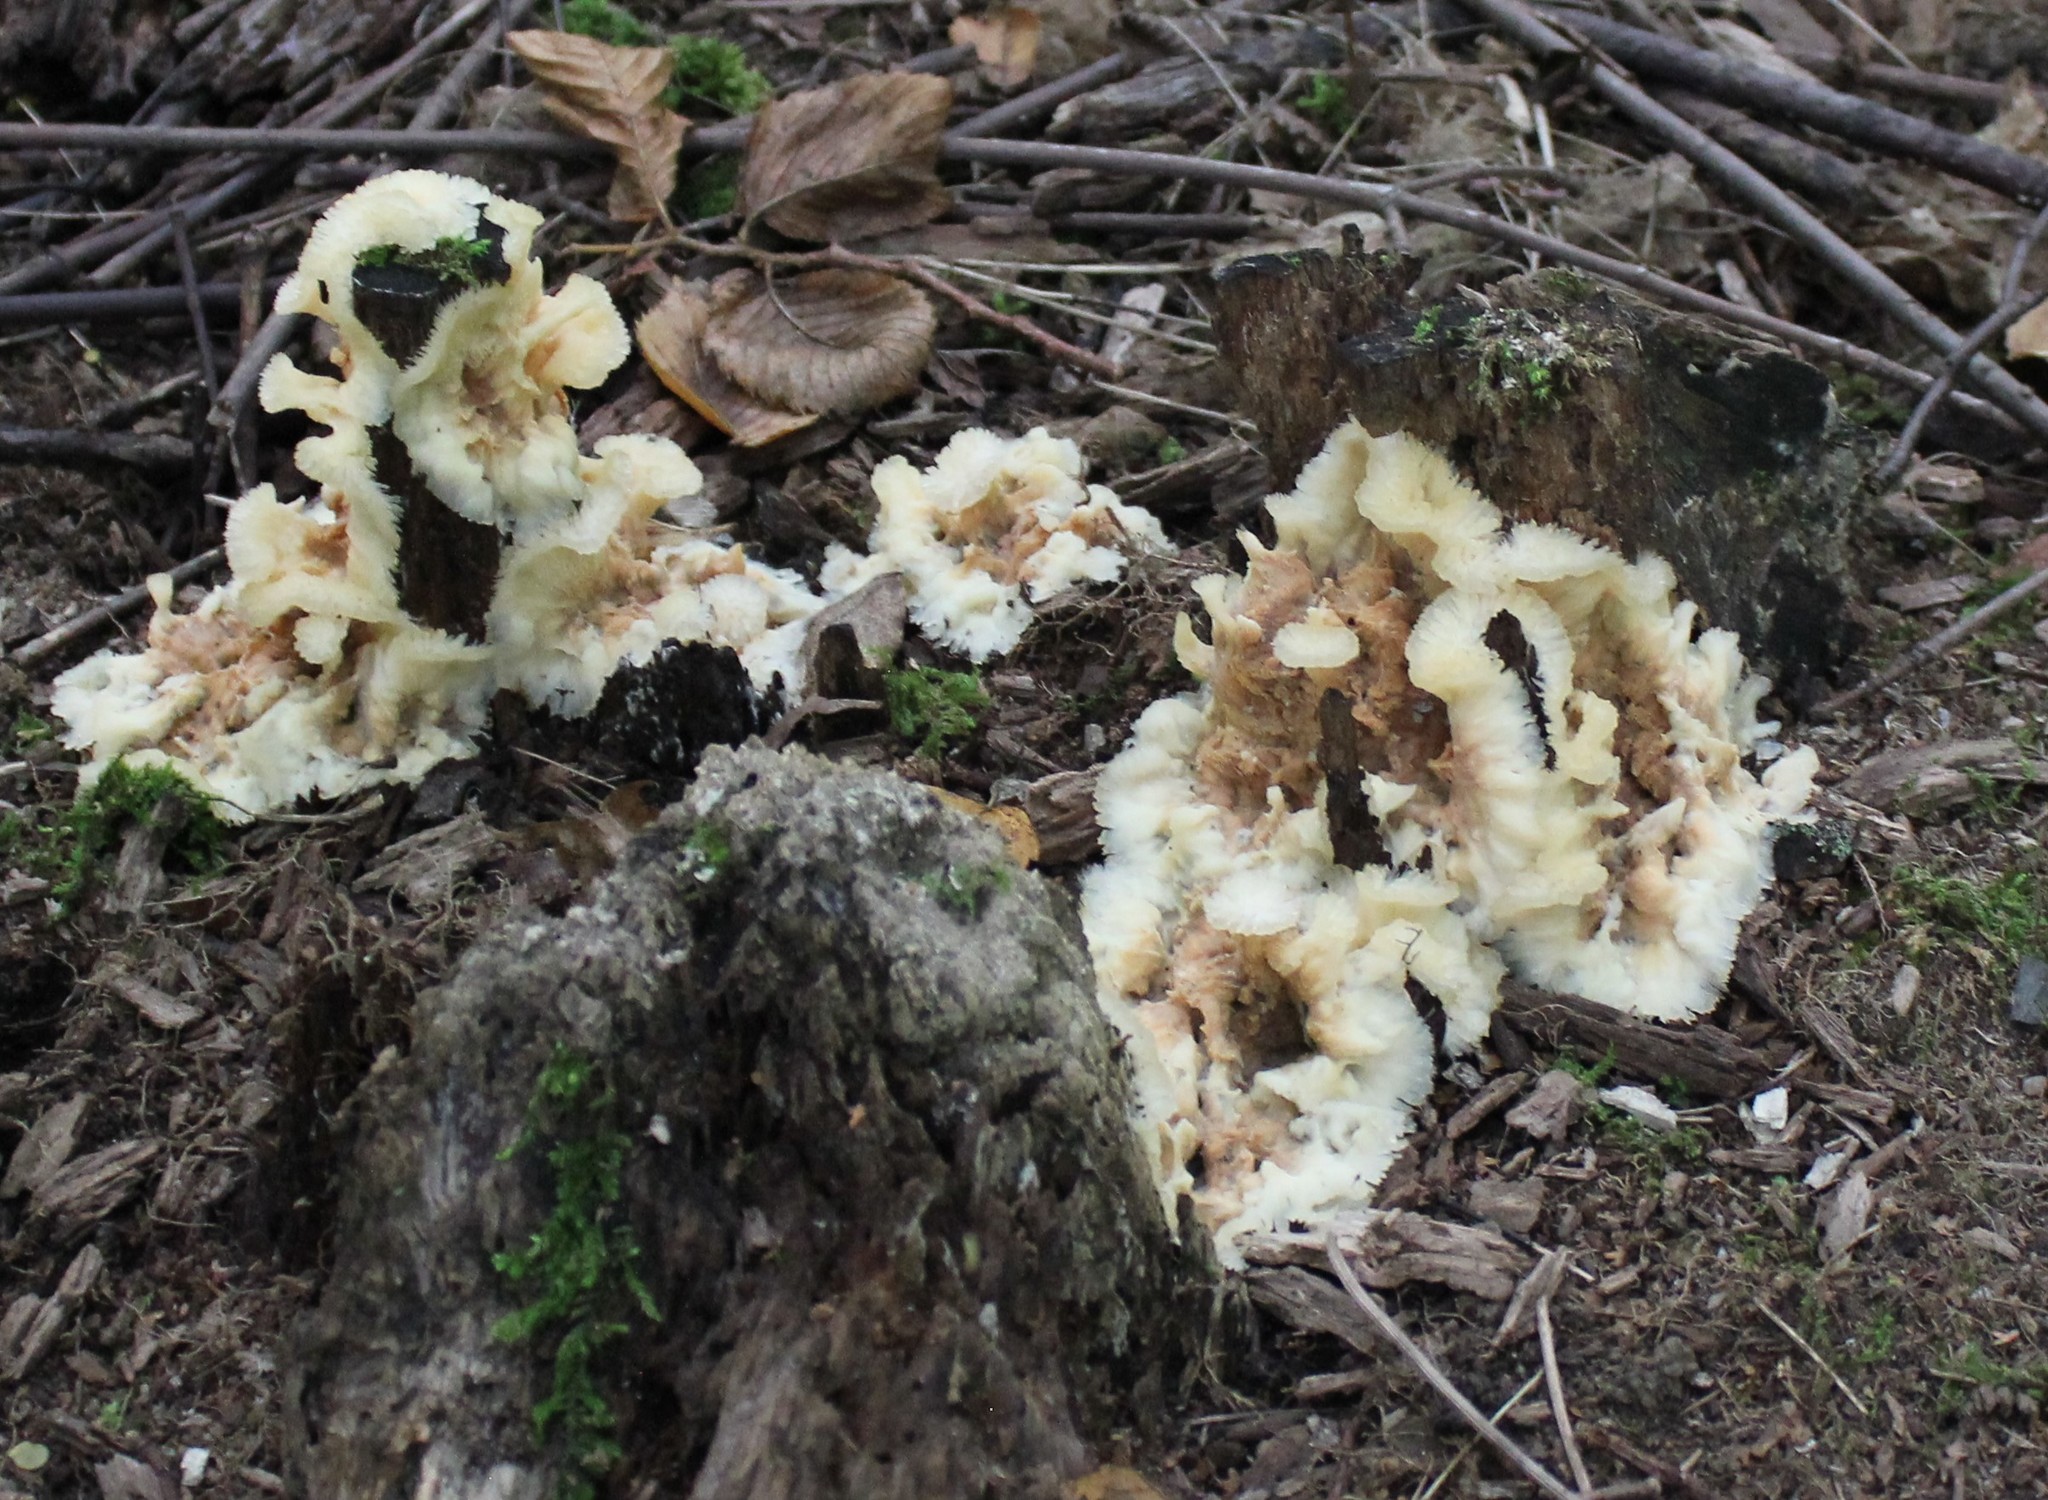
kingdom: Fungi
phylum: Basidiomycota
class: Agaricomycetes
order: Polyporales
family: Meruliaceae
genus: Phlebia
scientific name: Phlebia tremellosa
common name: Jelly rot
